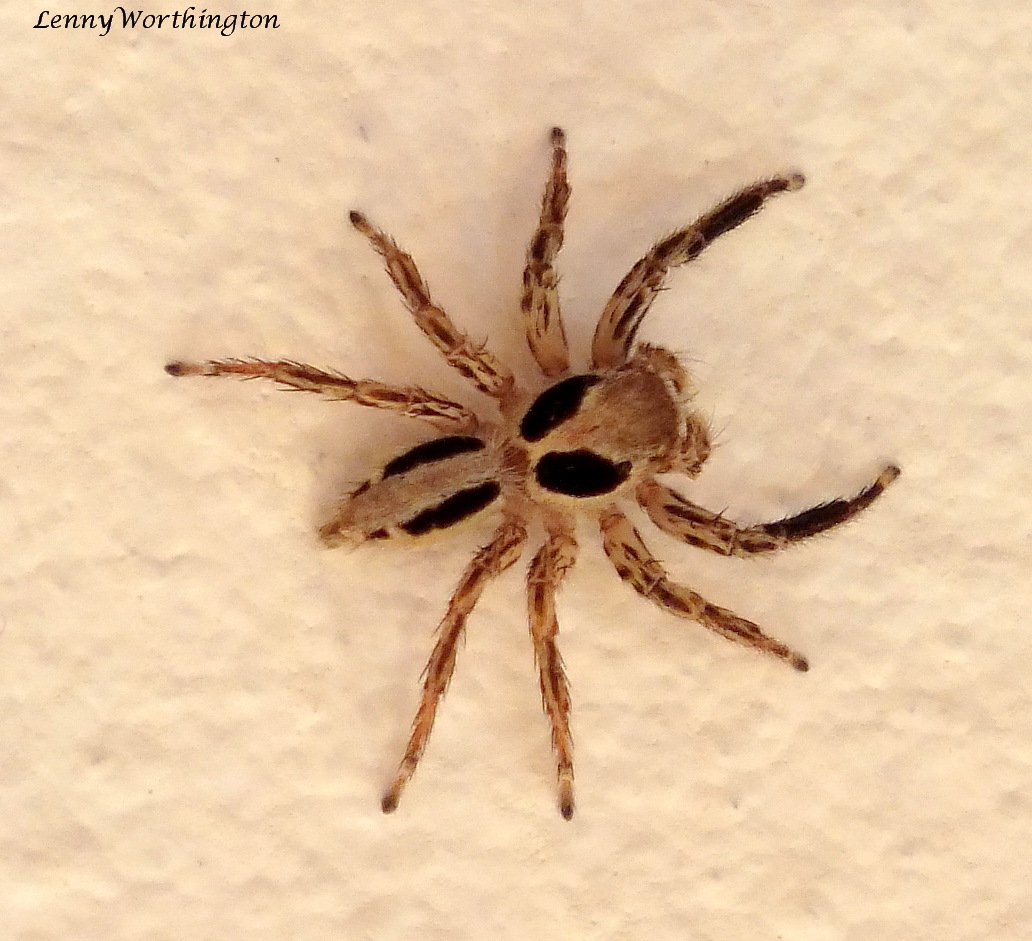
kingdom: Animalia
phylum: Arthropoda
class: Arachnida
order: Araneae
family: Salticidae
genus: Plexippus
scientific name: Plexippus petersi
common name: Jumping spider
